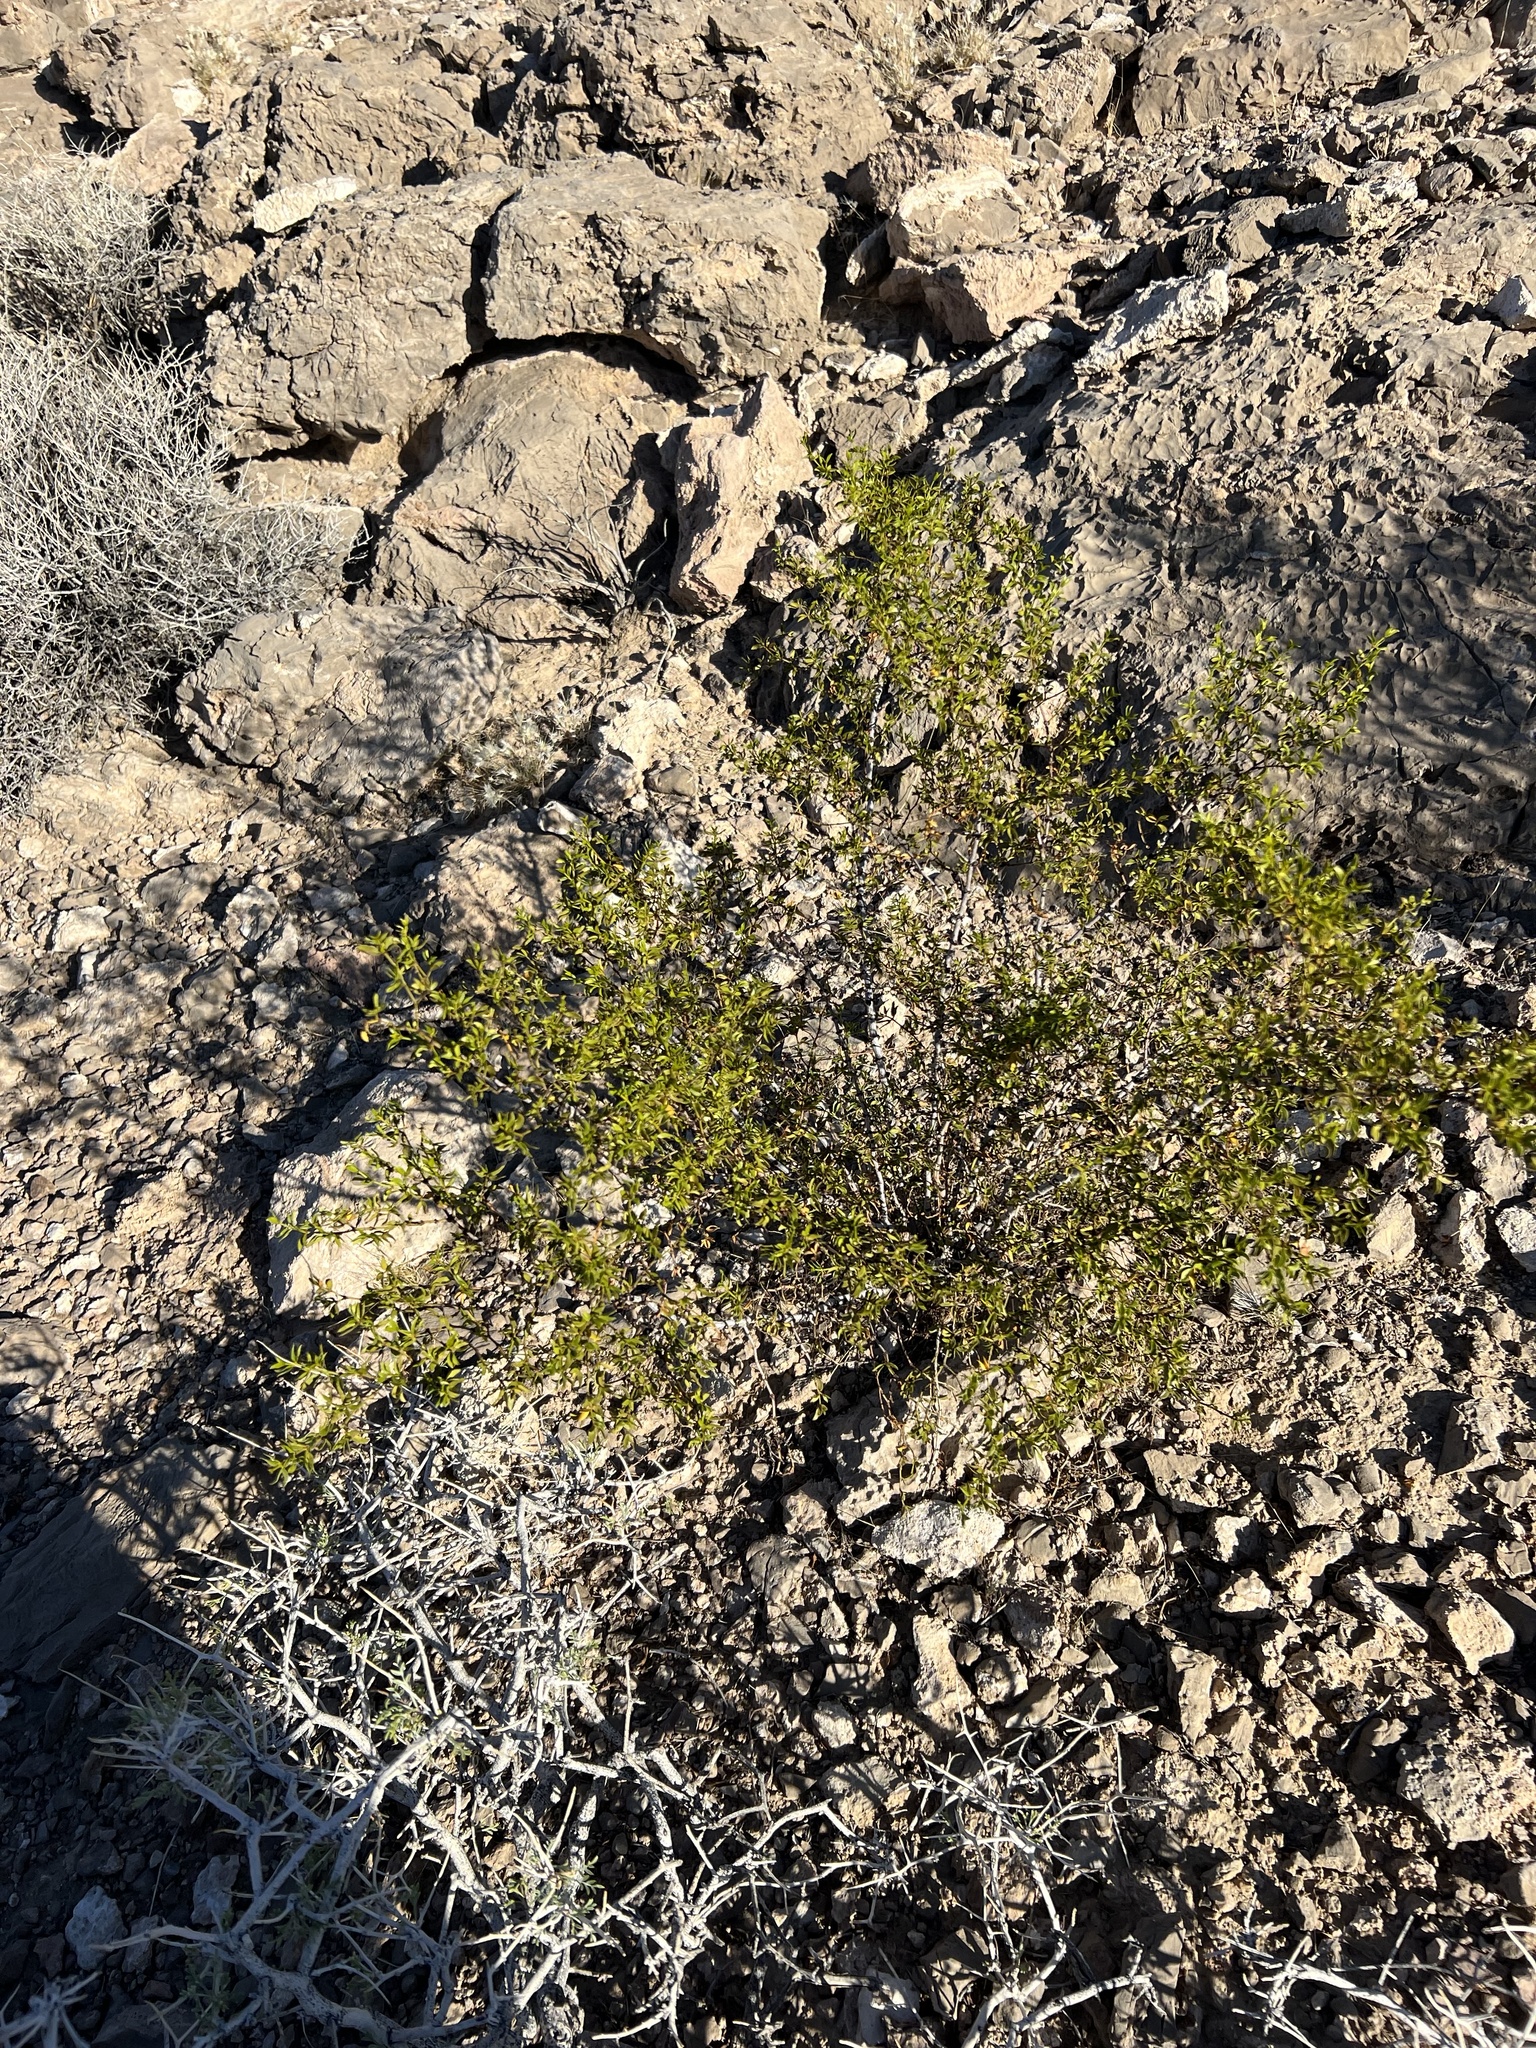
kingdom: Plantae
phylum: Tracheophyta
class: Magnoliopsida
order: Zygophyllales
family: Zygophyllaceae
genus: Larrea
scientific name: Larrea tridentata
